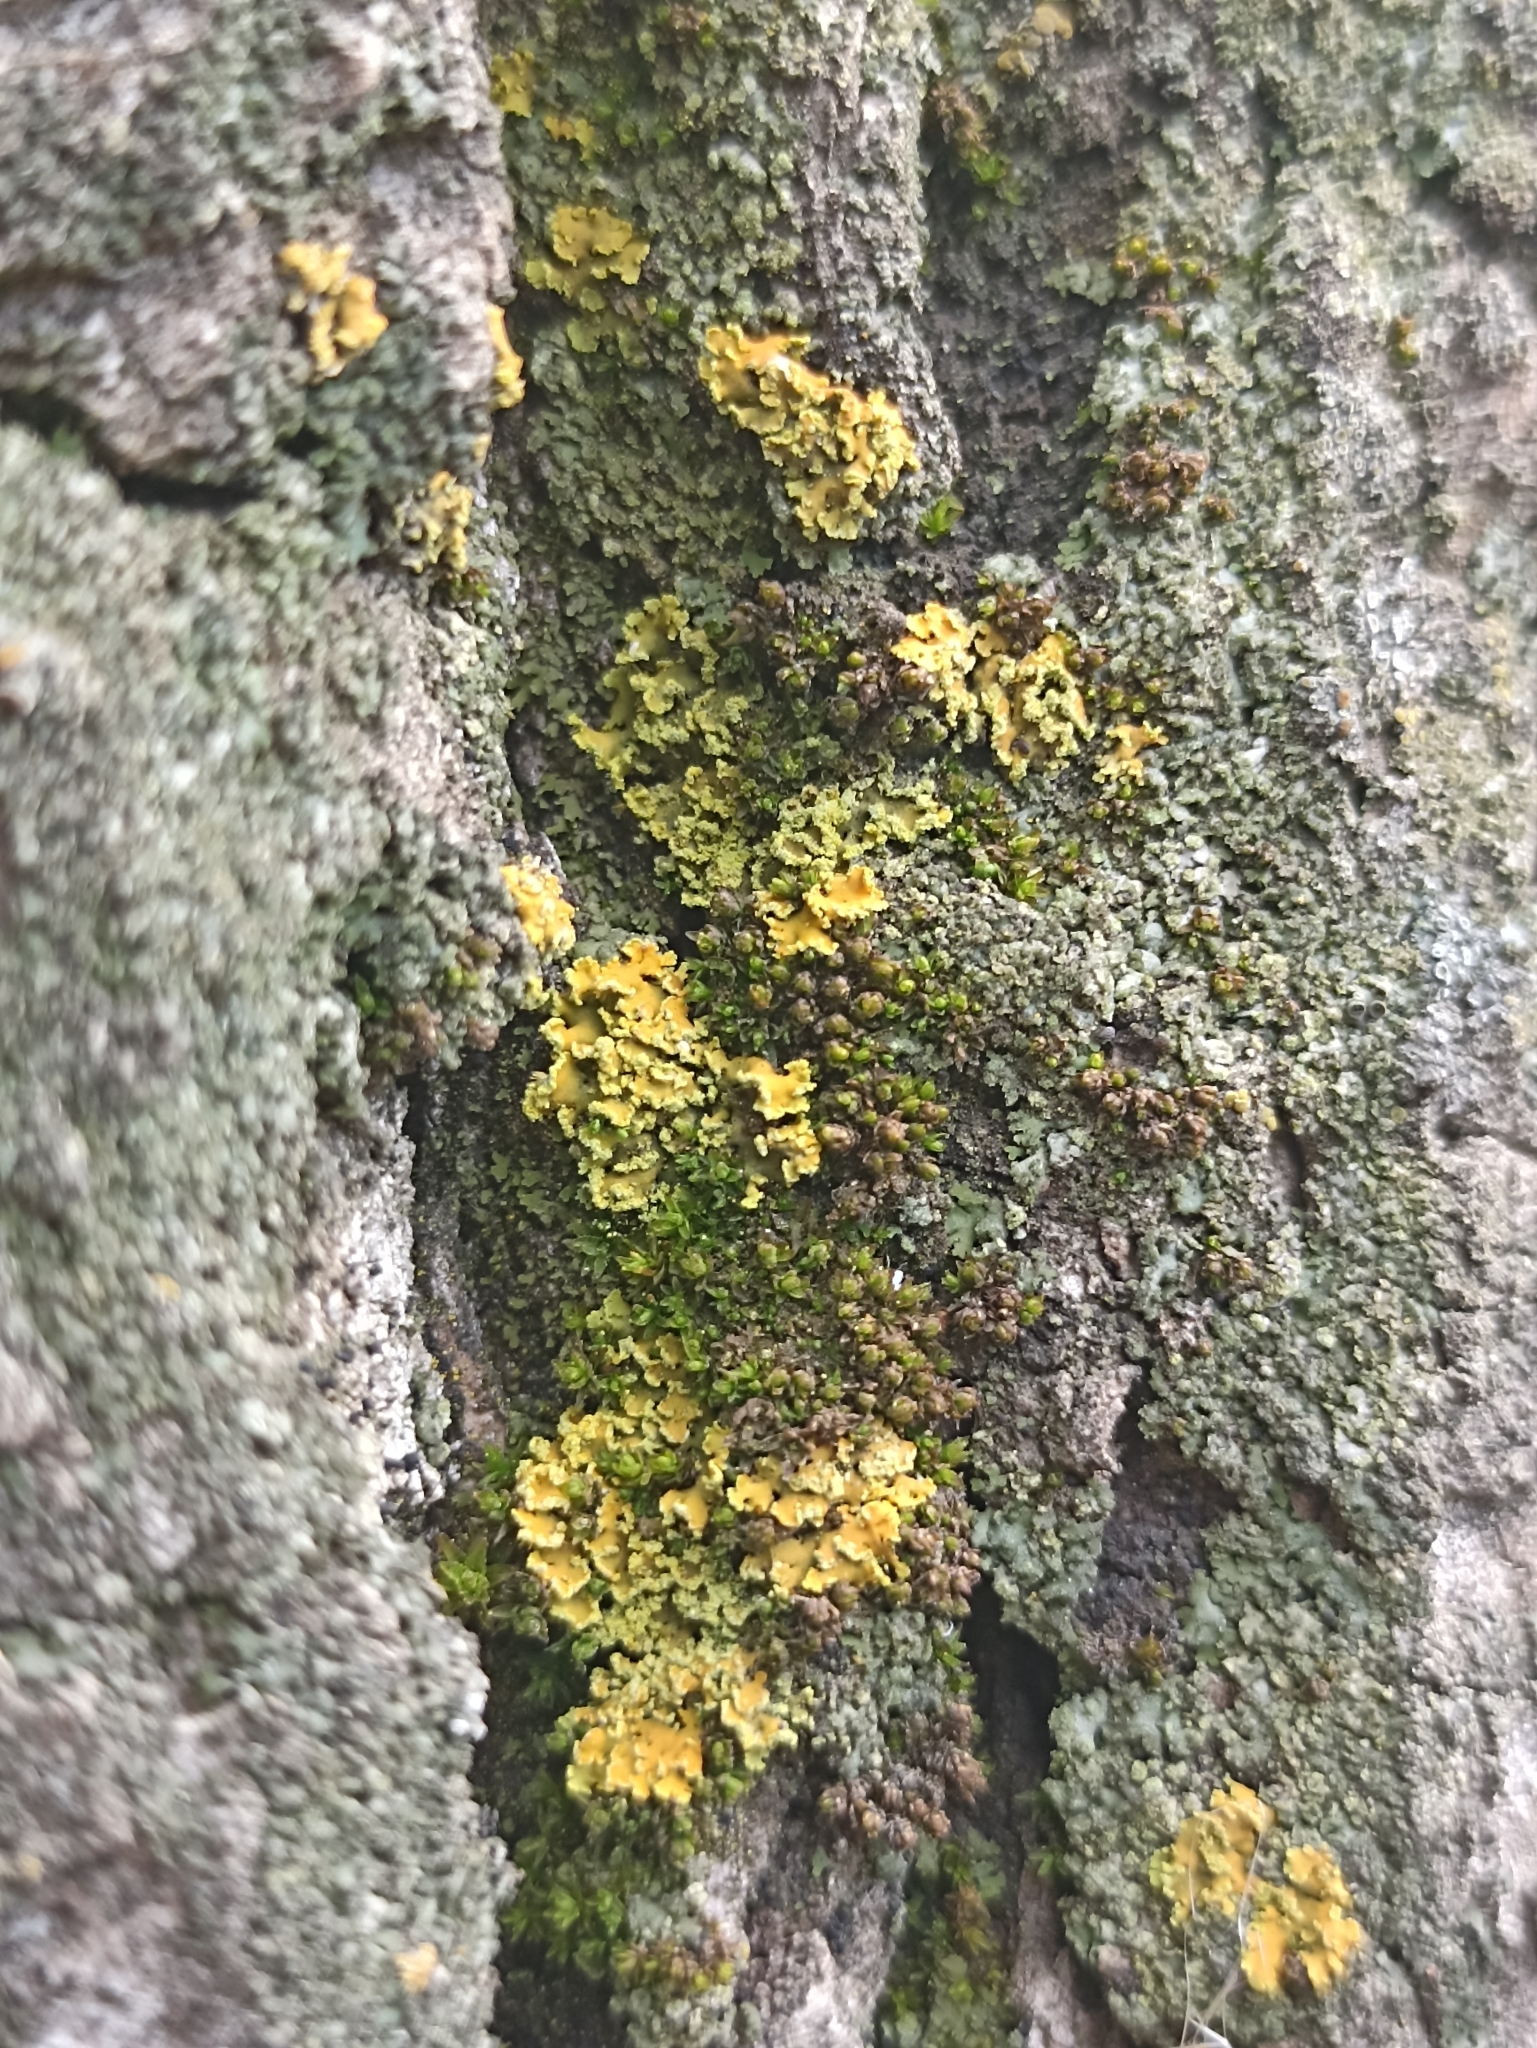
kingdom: Fungi
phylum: Ascomycota
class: Lecanoromycetes
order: Teloschistales
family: Teloschistaceae
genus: Xanthoria
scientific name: Xanthoria ulophyllodes
